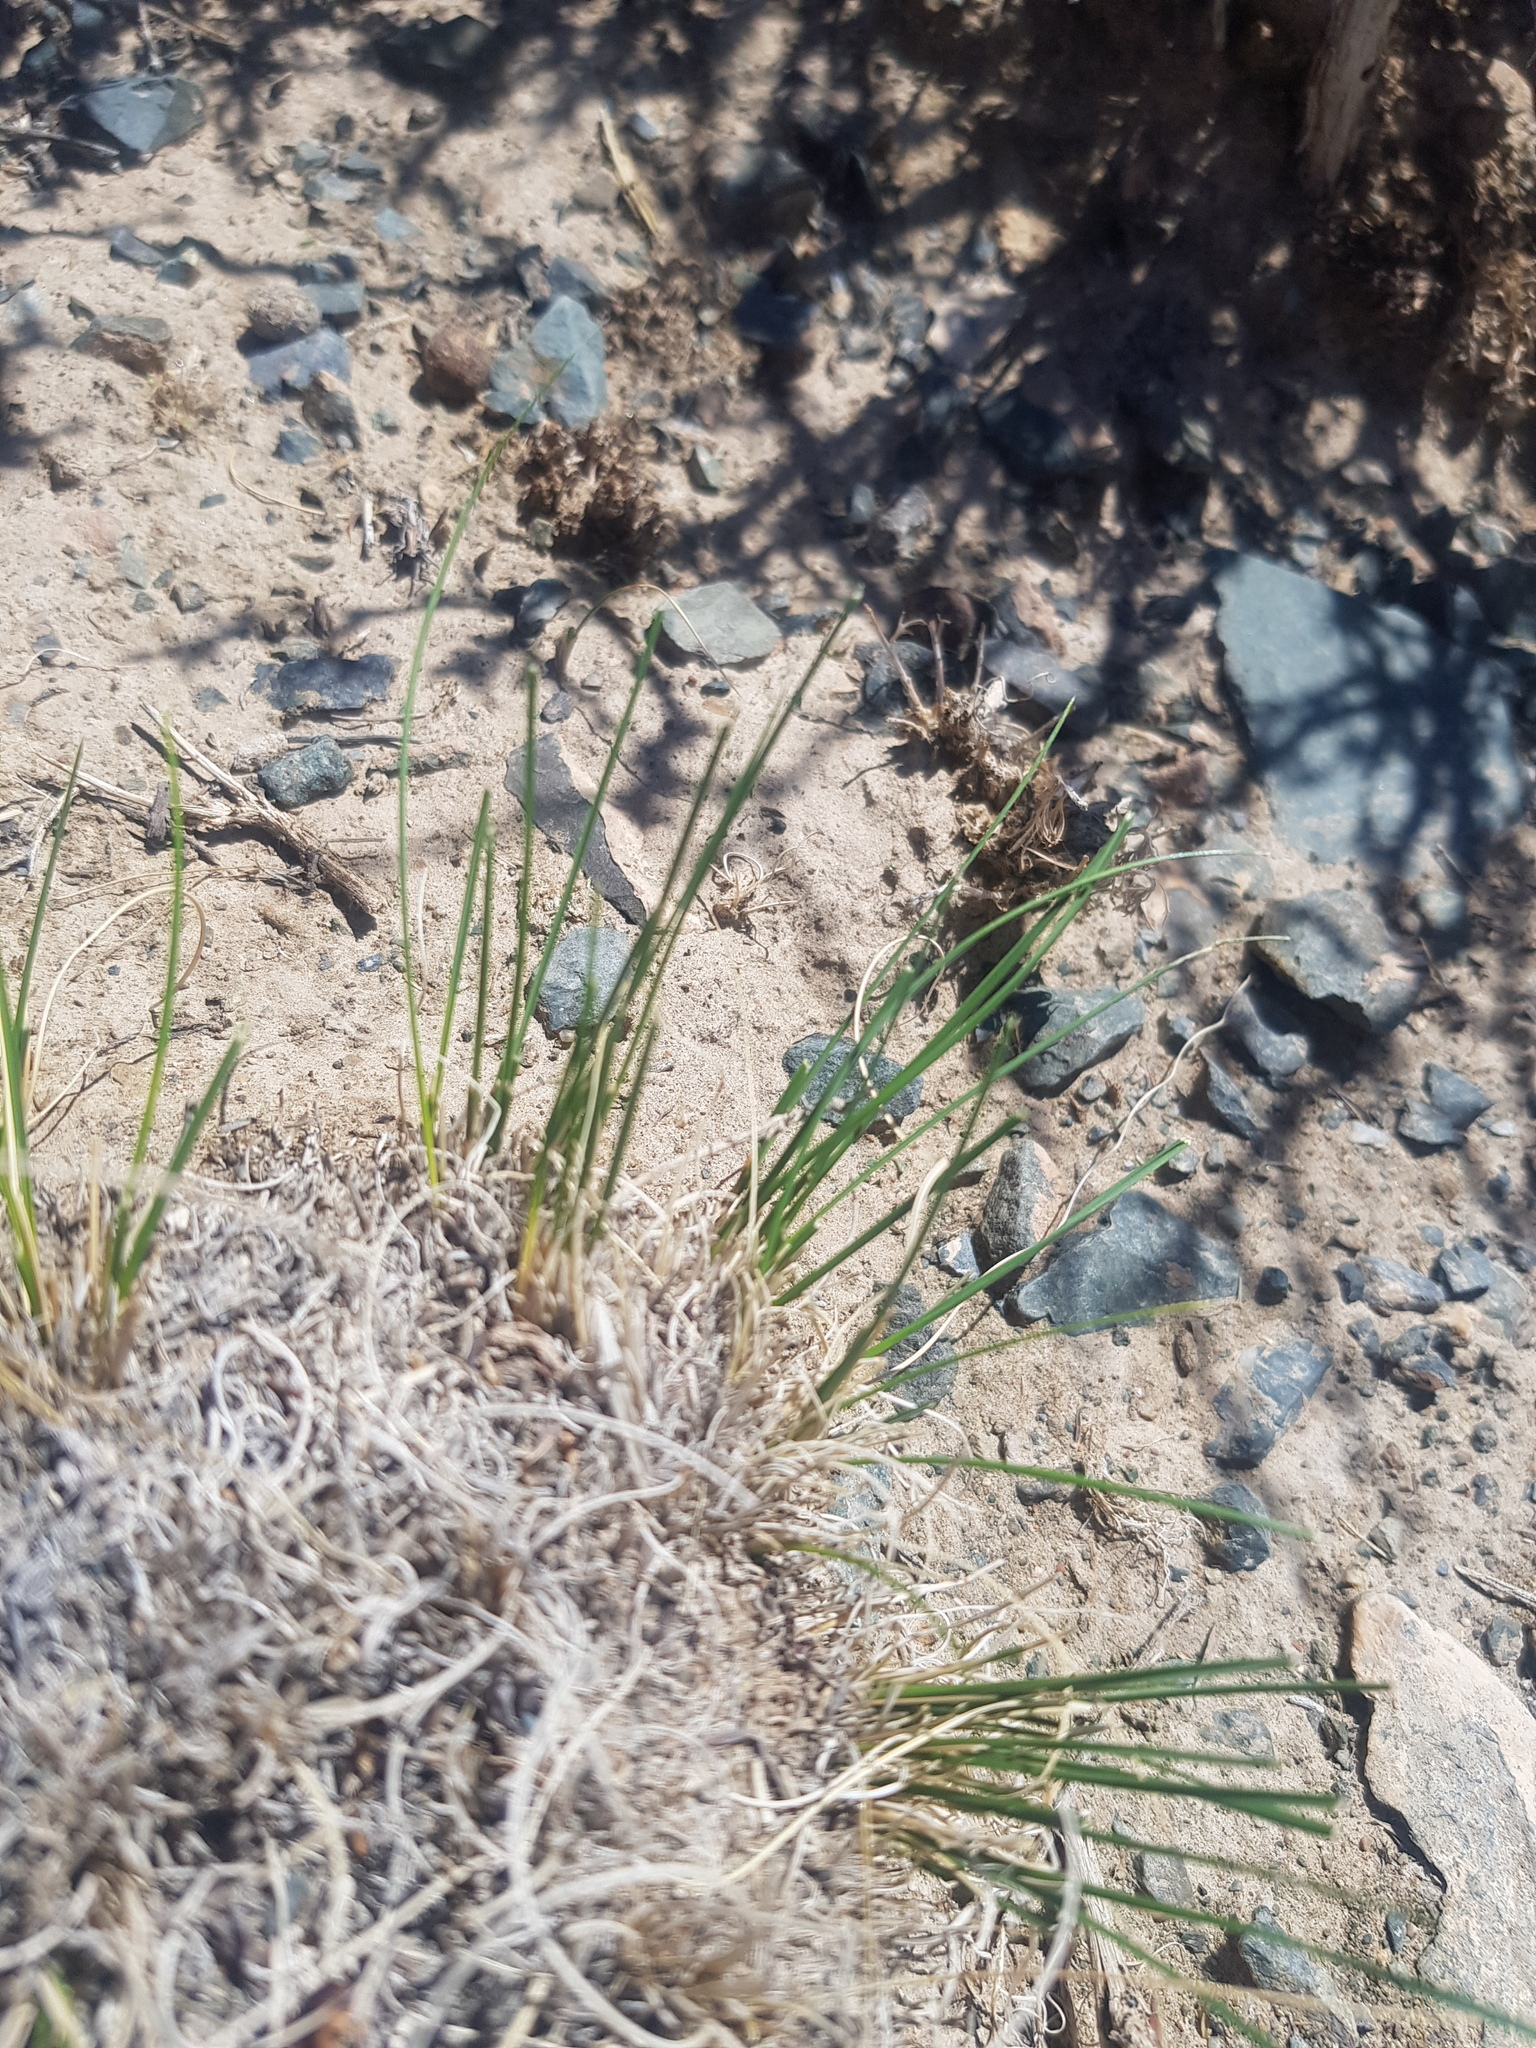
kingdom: Plantae
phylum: Tracheophyta
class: Liliopsida
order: Poales
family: Poaceae
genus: Stipa
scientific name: Stipa glareosa
